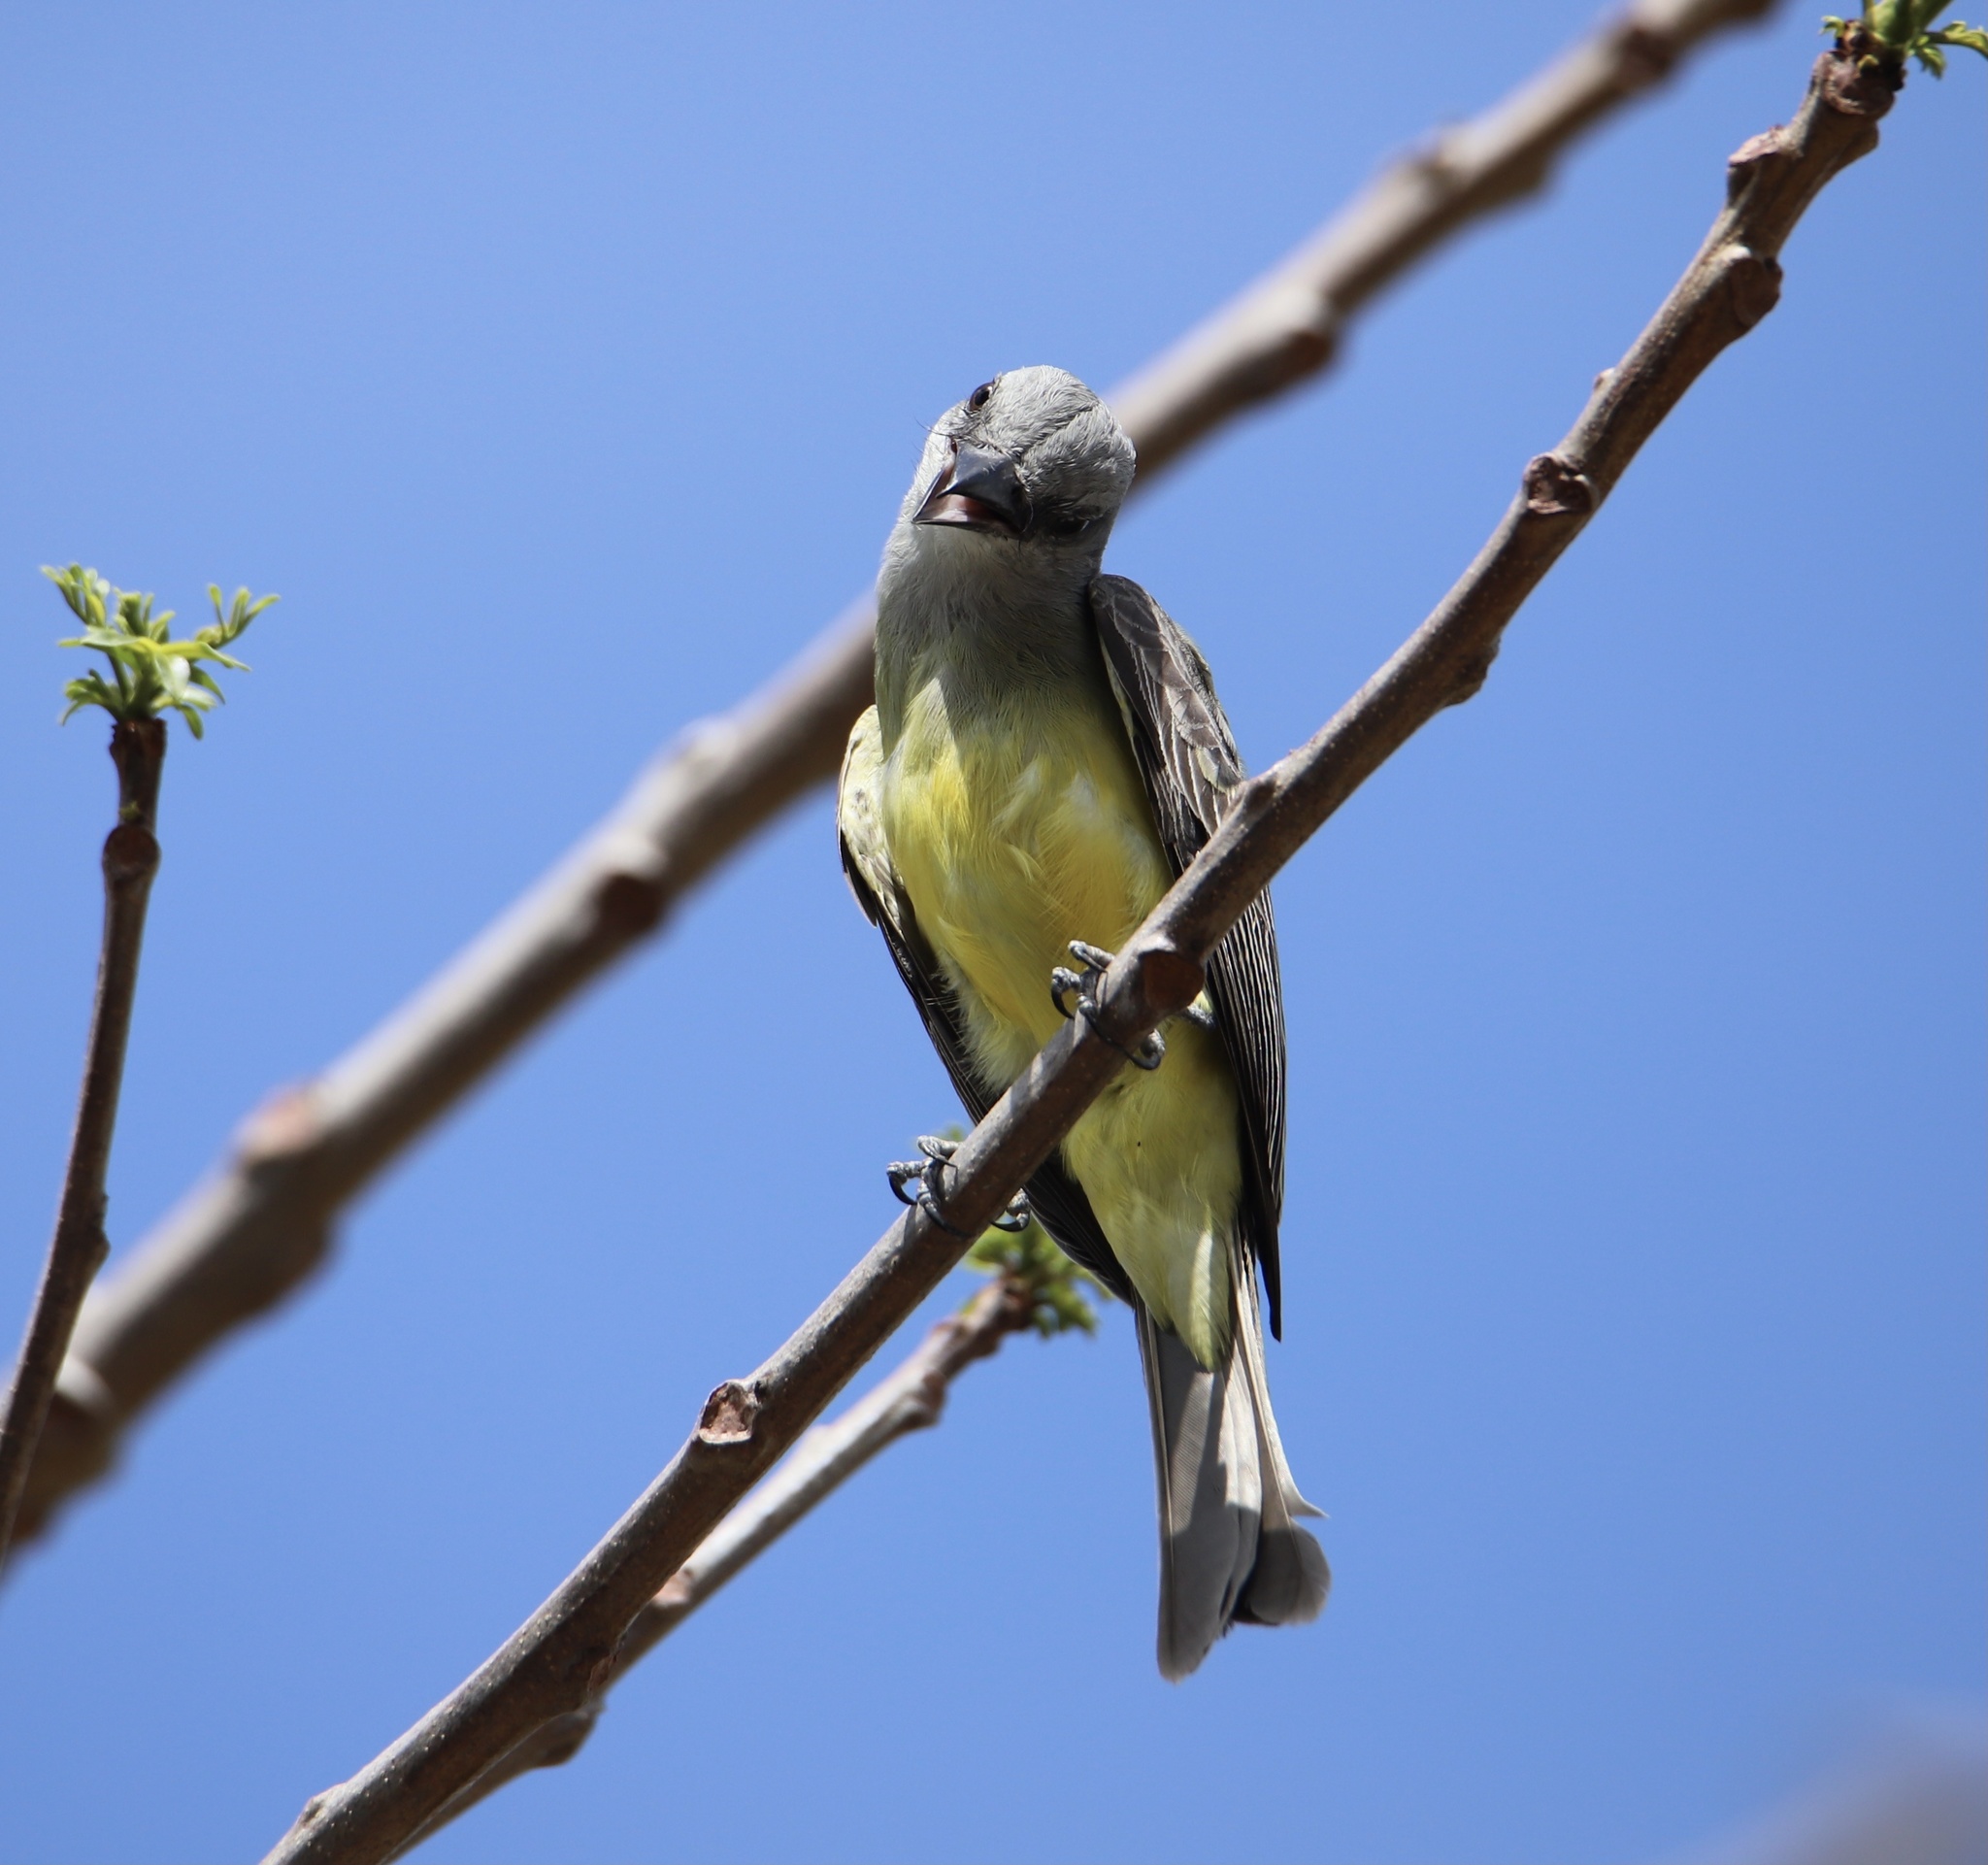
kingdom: Animalia
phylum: Chordata
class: Aves
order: Passeriformes
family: Tyrannidae
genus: Tyrannus
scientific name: Tyrannus melancholicus
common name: Tropical kingbird
